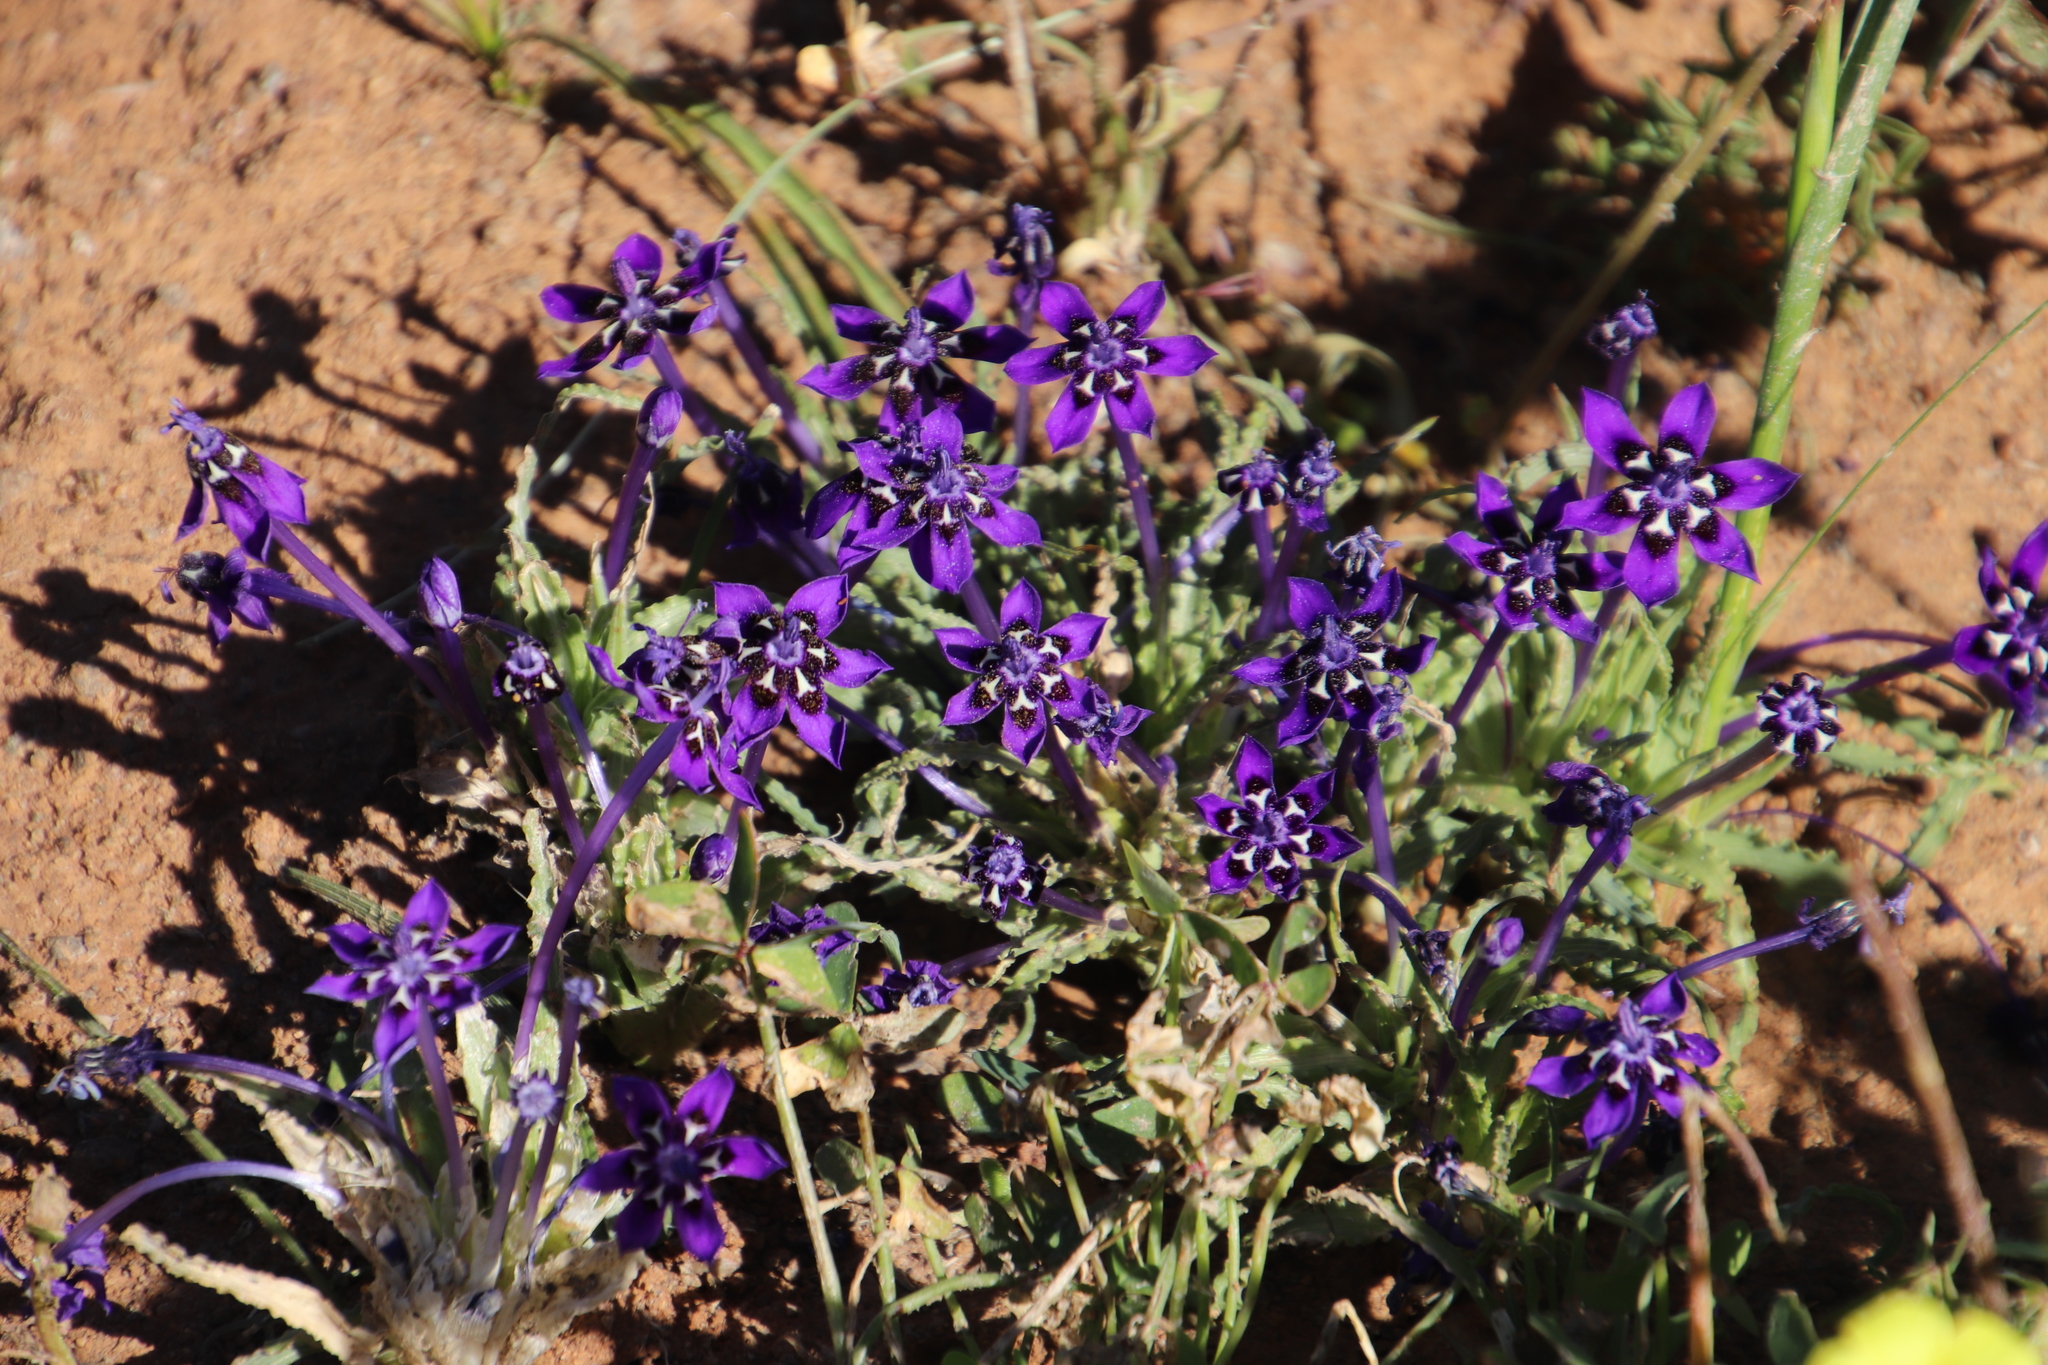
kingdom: Plantae
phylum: Tracheophyta
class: Liliopsida
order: Asparagales
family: Iridaceae
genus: Lapeirousia
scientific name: Lapeirousia oreogena
